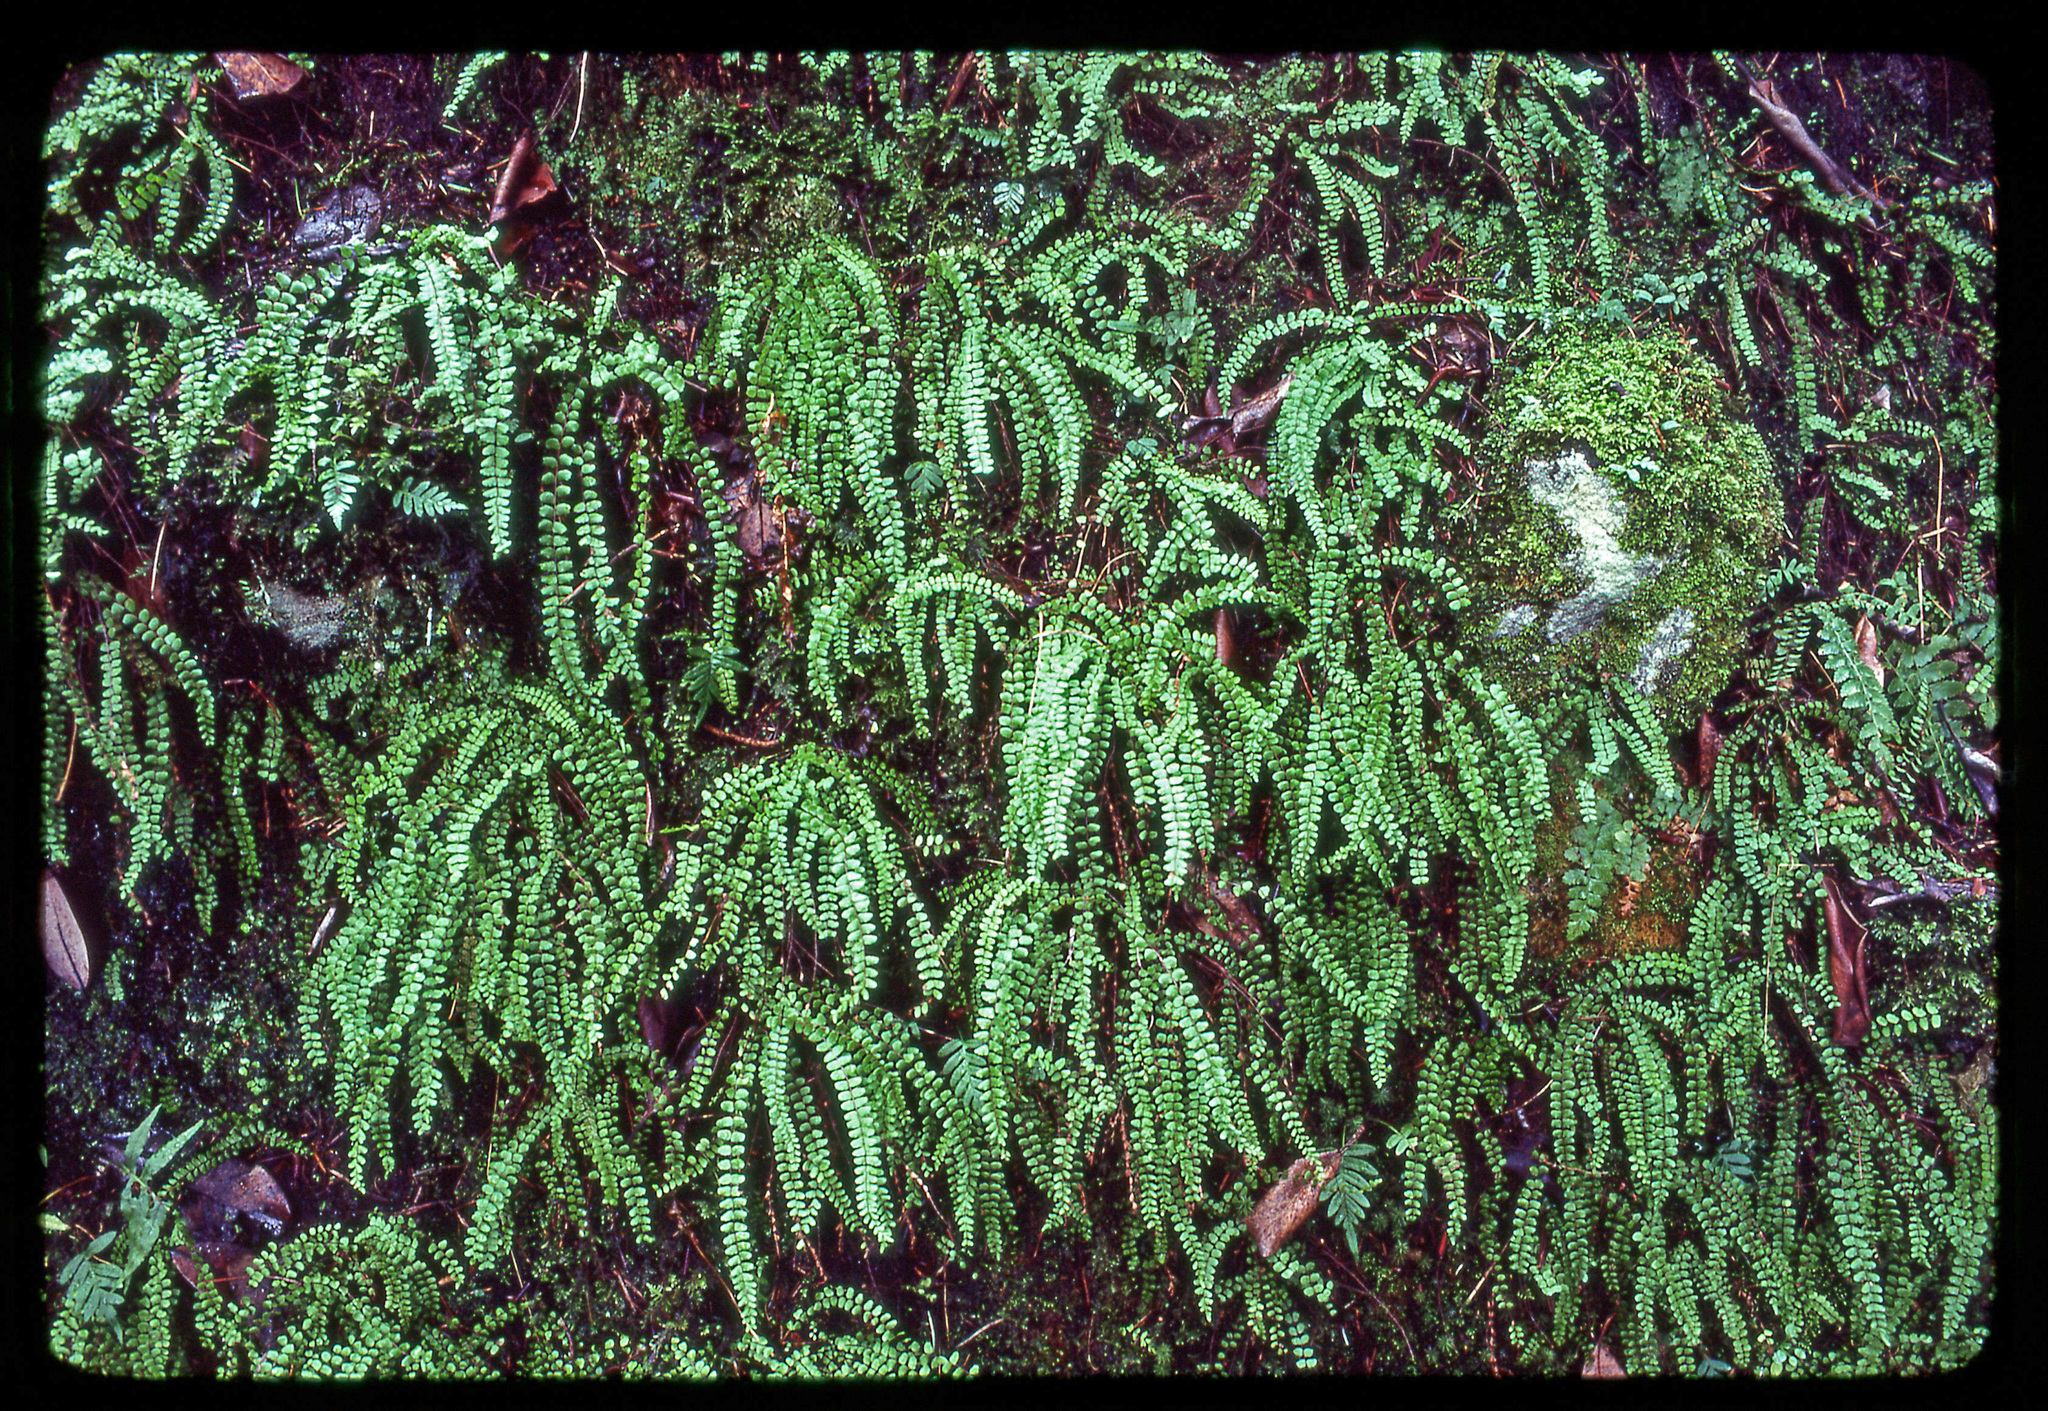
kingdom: Plantae
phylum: Tracheophyta
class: Polypodiopsida
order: Polypodiales
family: Aspleniaceae
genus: Asplenium
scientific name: Asplenium trichomanes
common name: Maidenhair spleenwort
